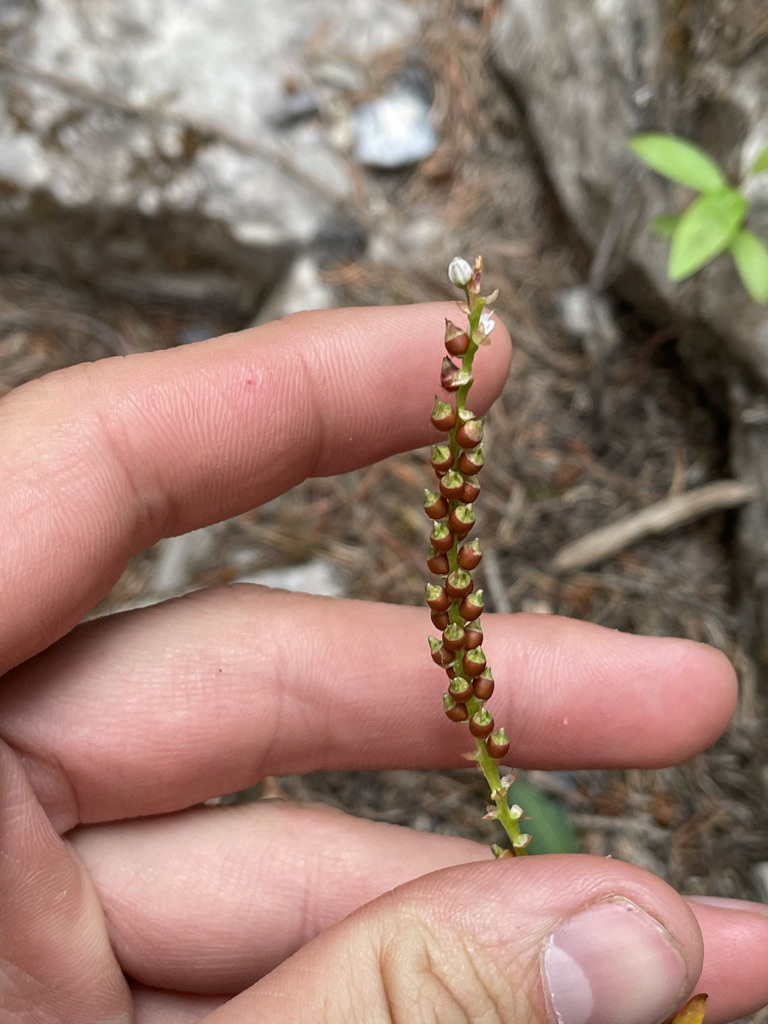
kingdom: Plantae
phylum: Tracheophyta
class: Magnoliopsida
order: Caryophyllales
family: Polygonaceae
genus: Bistorta
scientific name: Bistorta vivipara
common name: Alpine bistort
